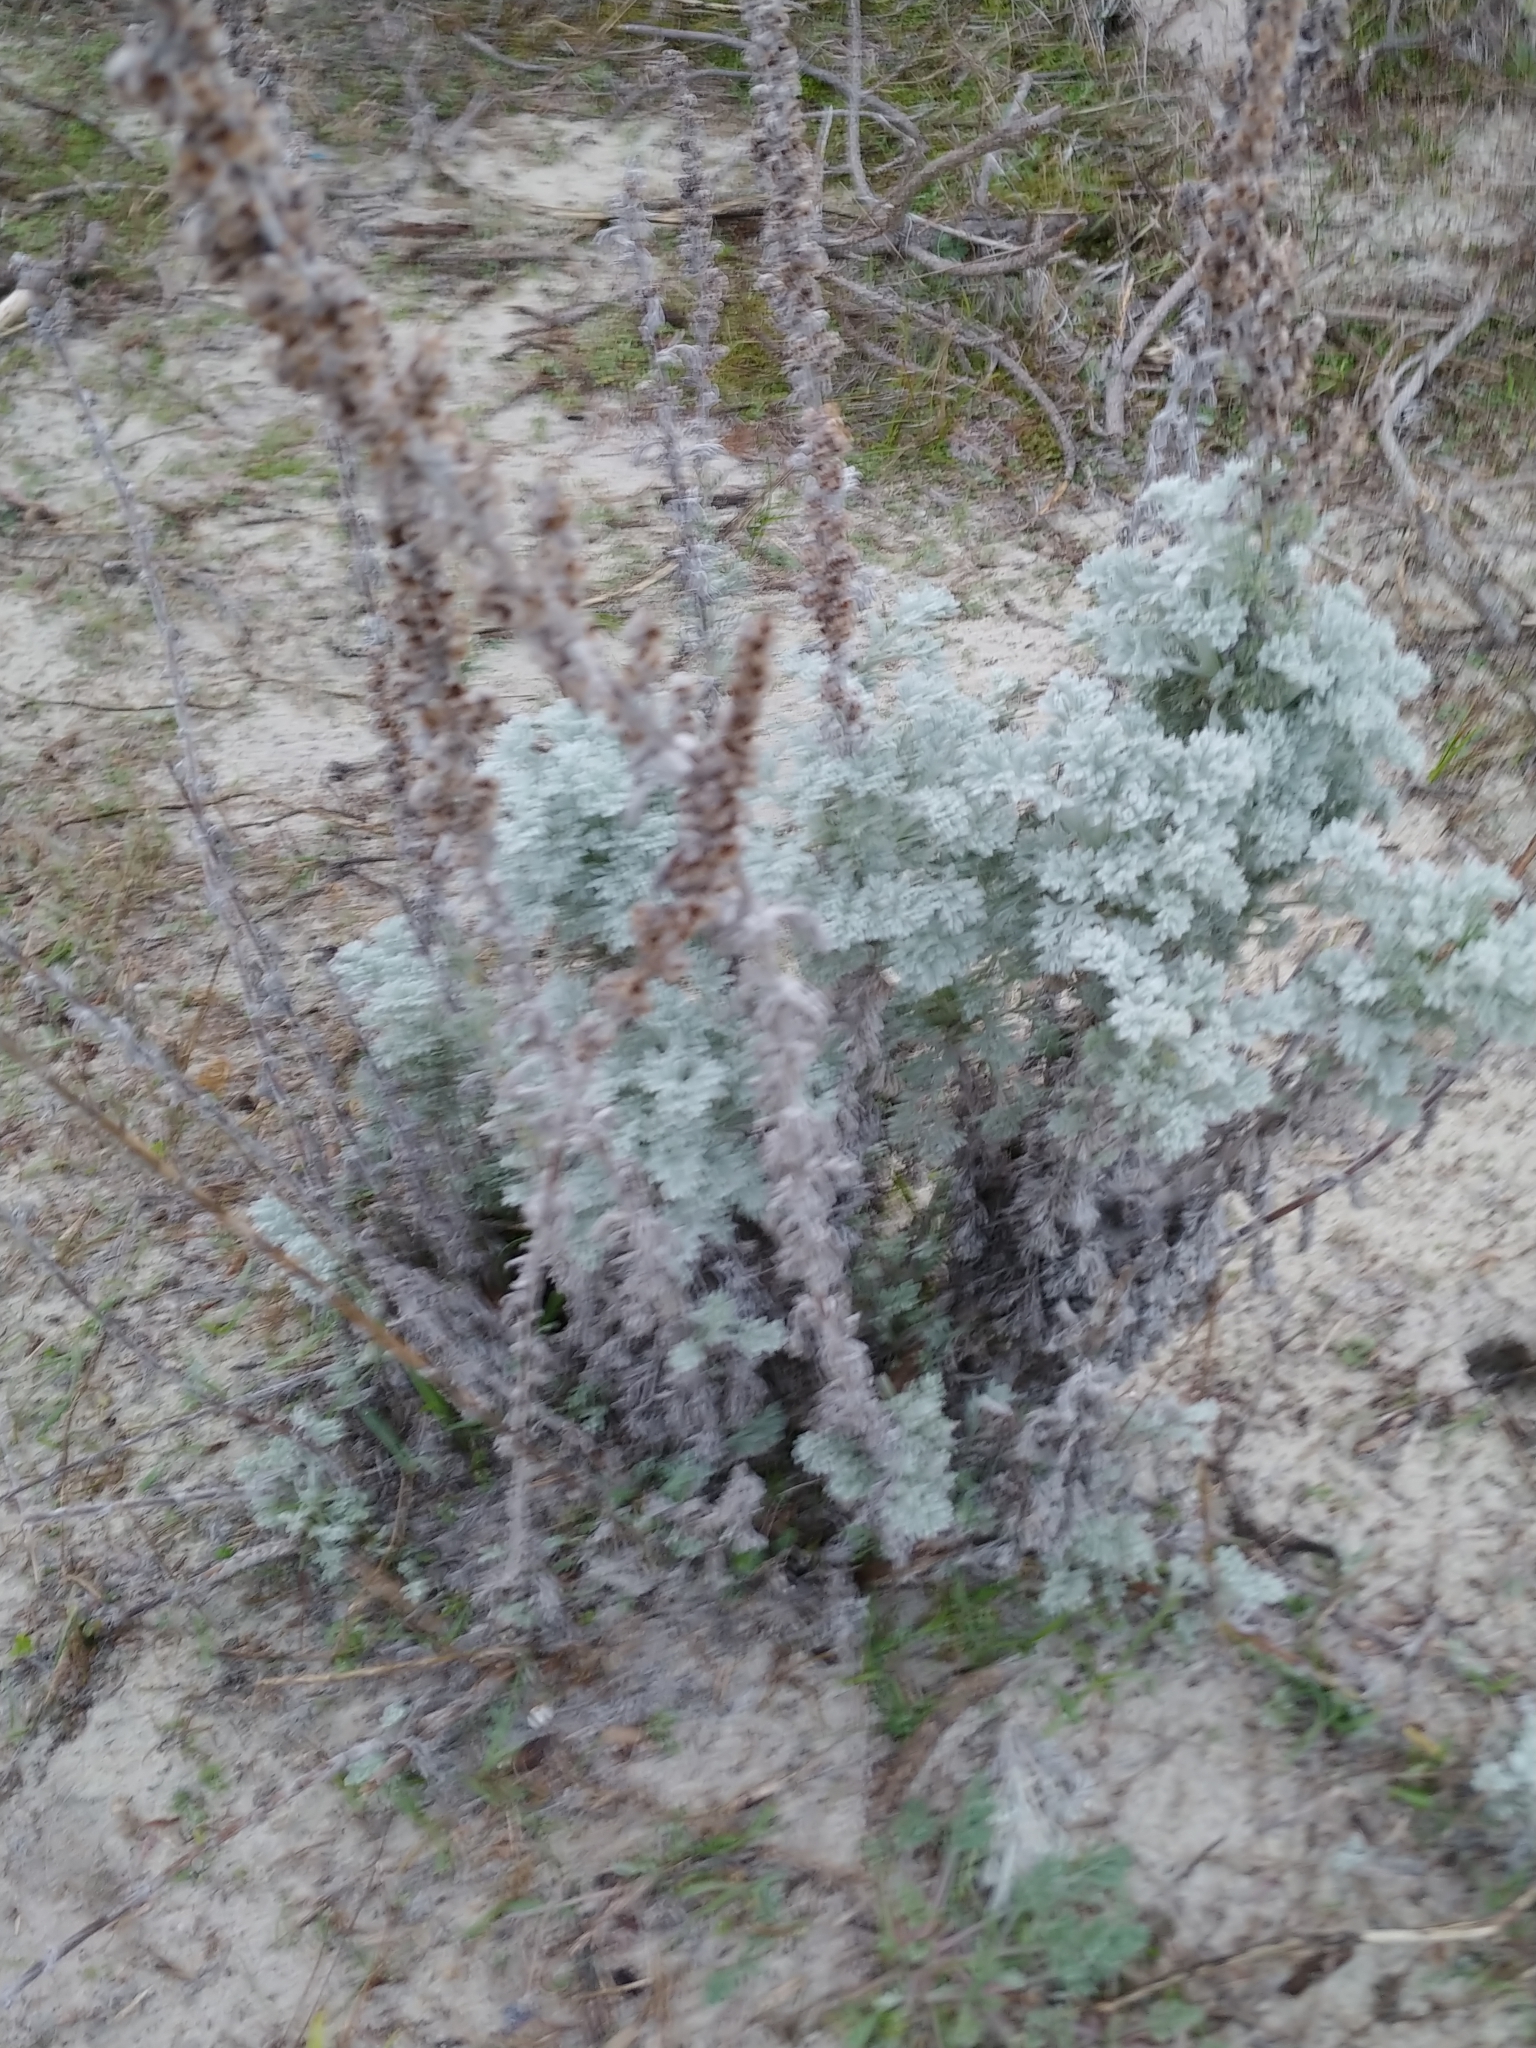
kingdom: Plantae
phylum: Tracheophyta
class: Magnoliopsida
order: Asterales
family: Asteraceae
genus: Artemisia
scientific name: Artemisia pycnocephala
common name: Coastal sagewort
